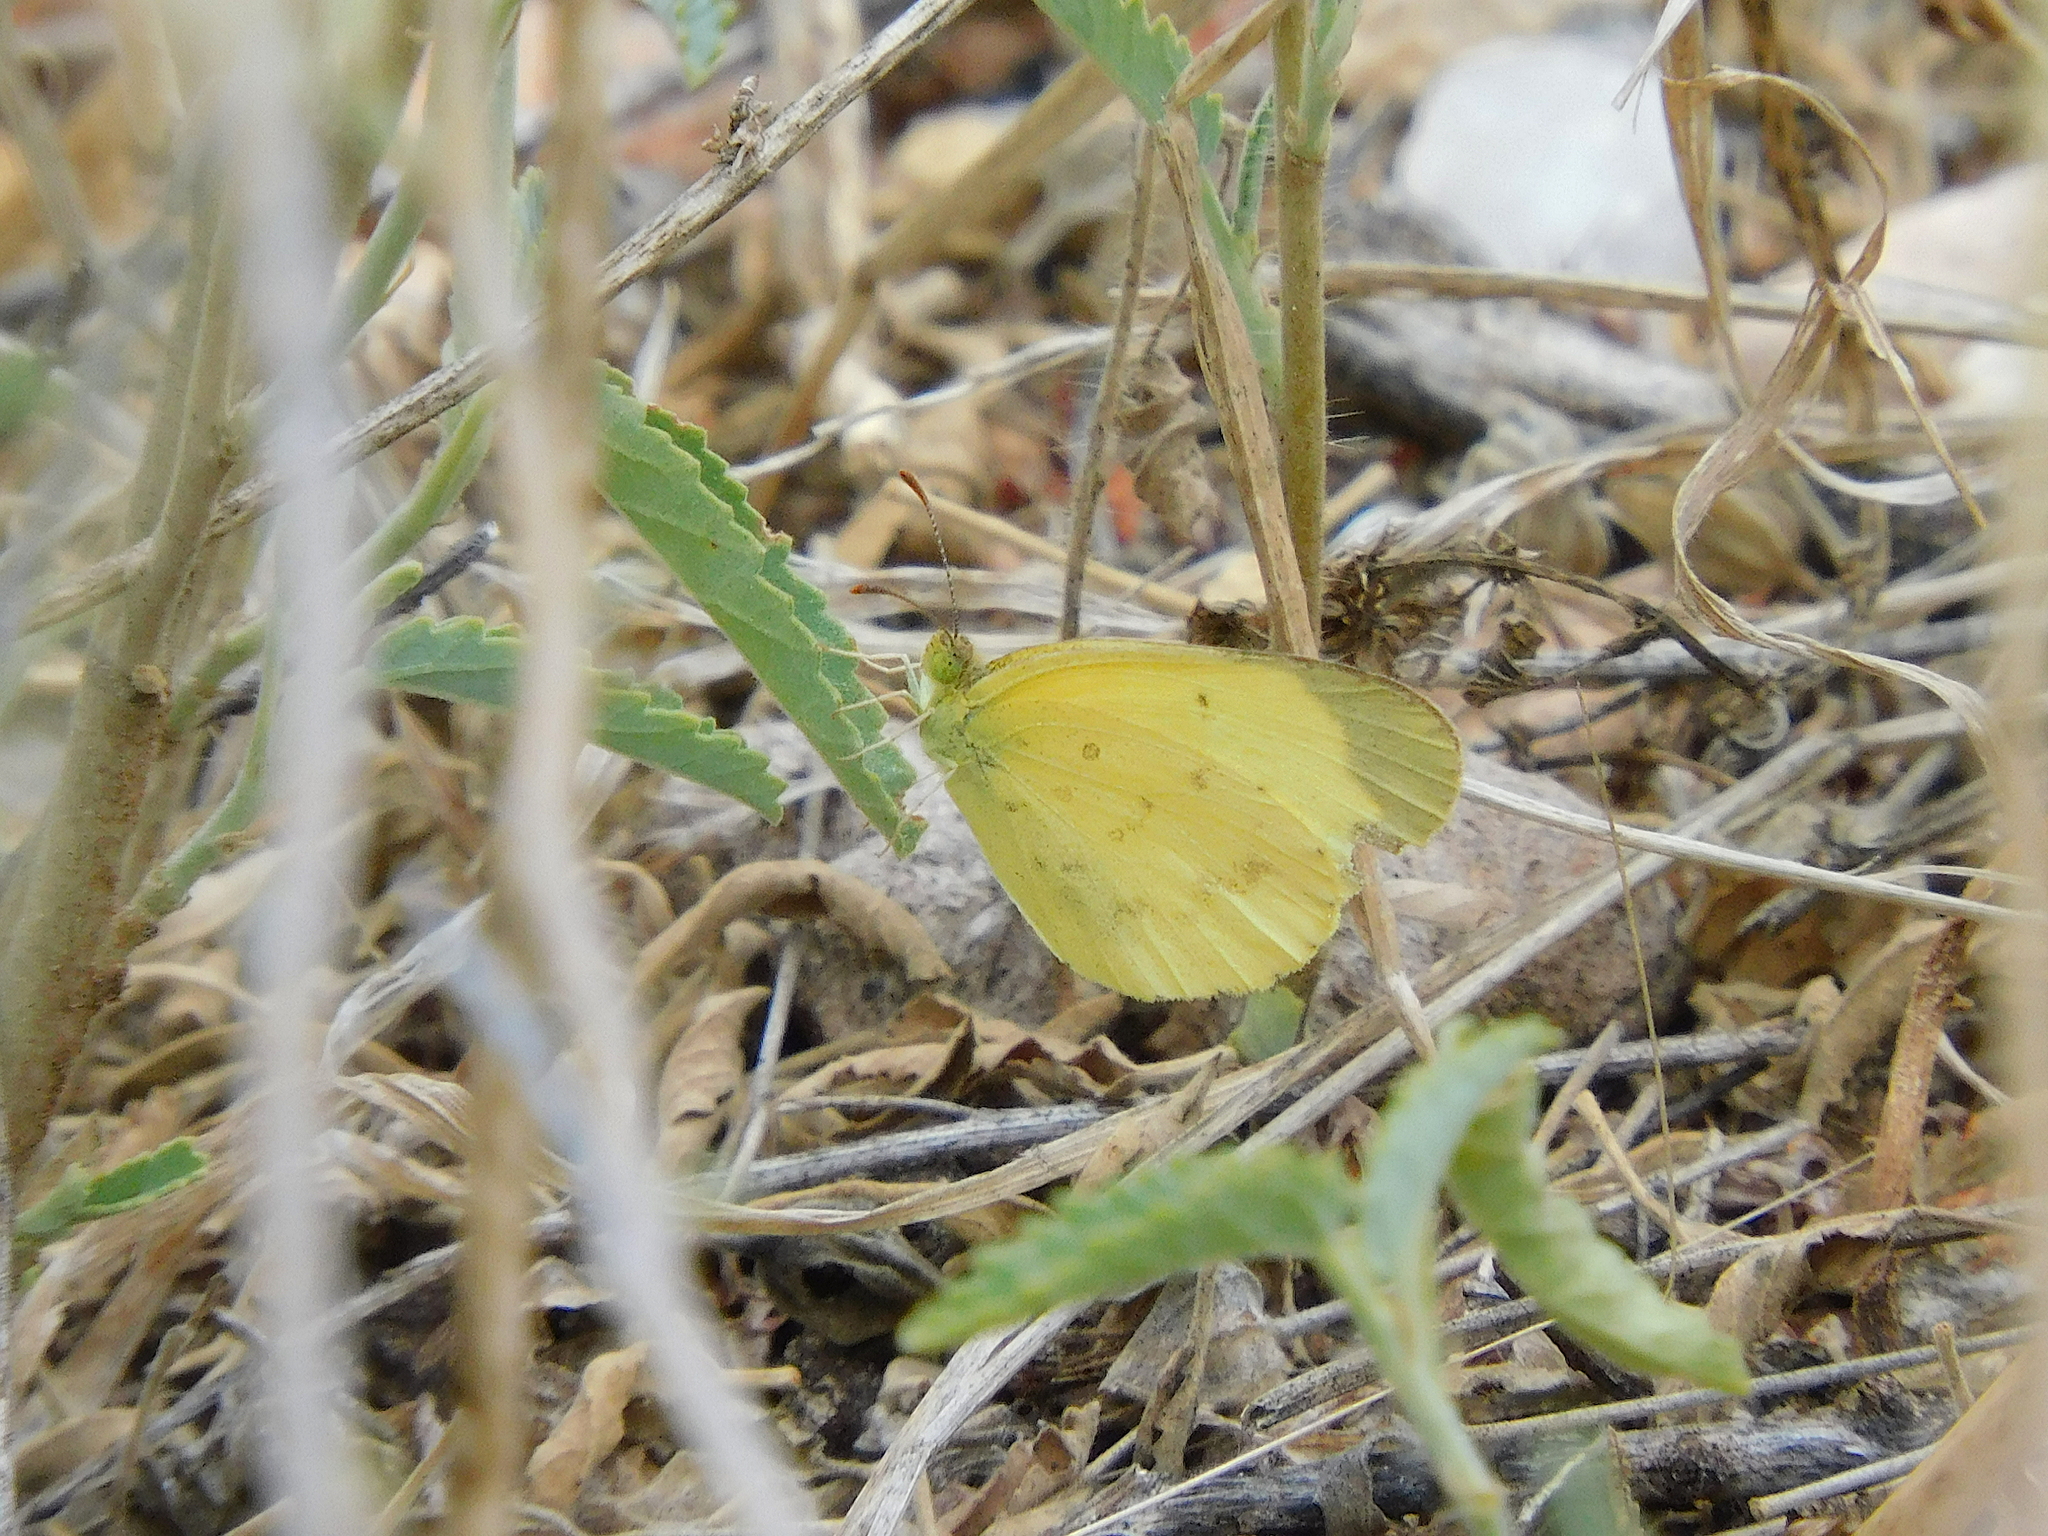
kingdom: Animalia
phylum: Arthropoda
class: Insecta
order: Lepidoptera
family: Pieridae
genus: Eurema
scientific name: Eurema smilax
